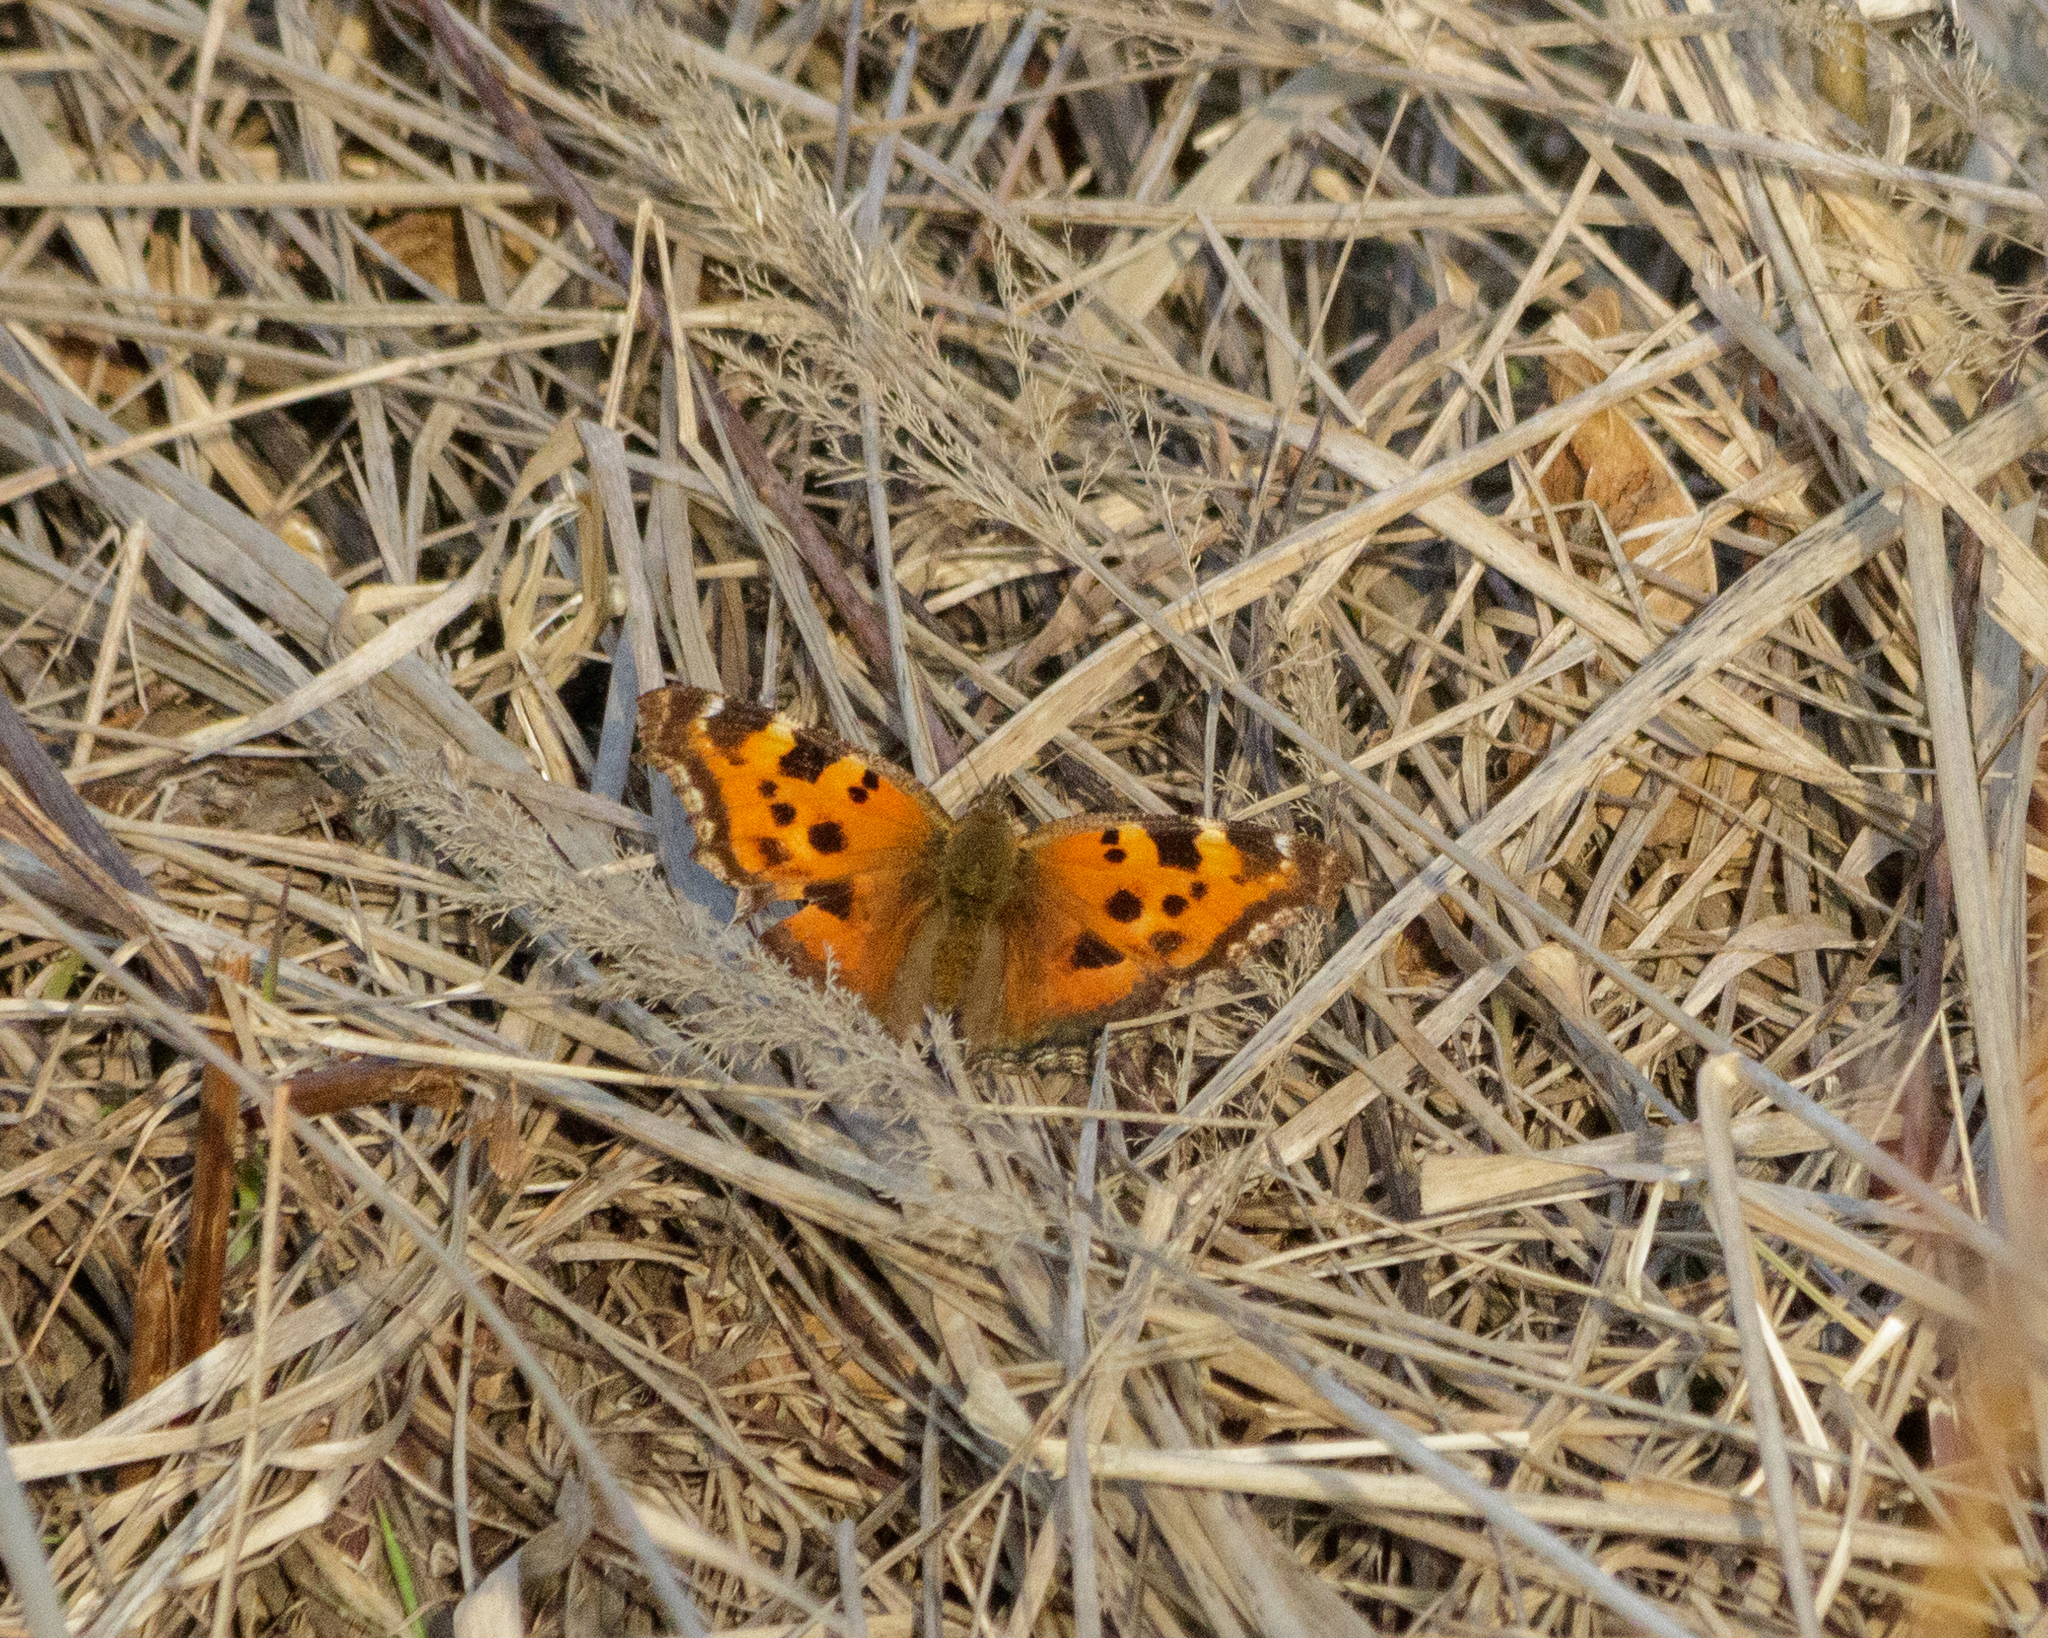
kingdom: Animalia
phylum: Arthropoda
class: Insecta
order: Lepidoptera
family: Nymphalidae
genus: Nymphalis
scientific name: Nymphalis xanthomelas
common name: Scarce tortoiseshell
